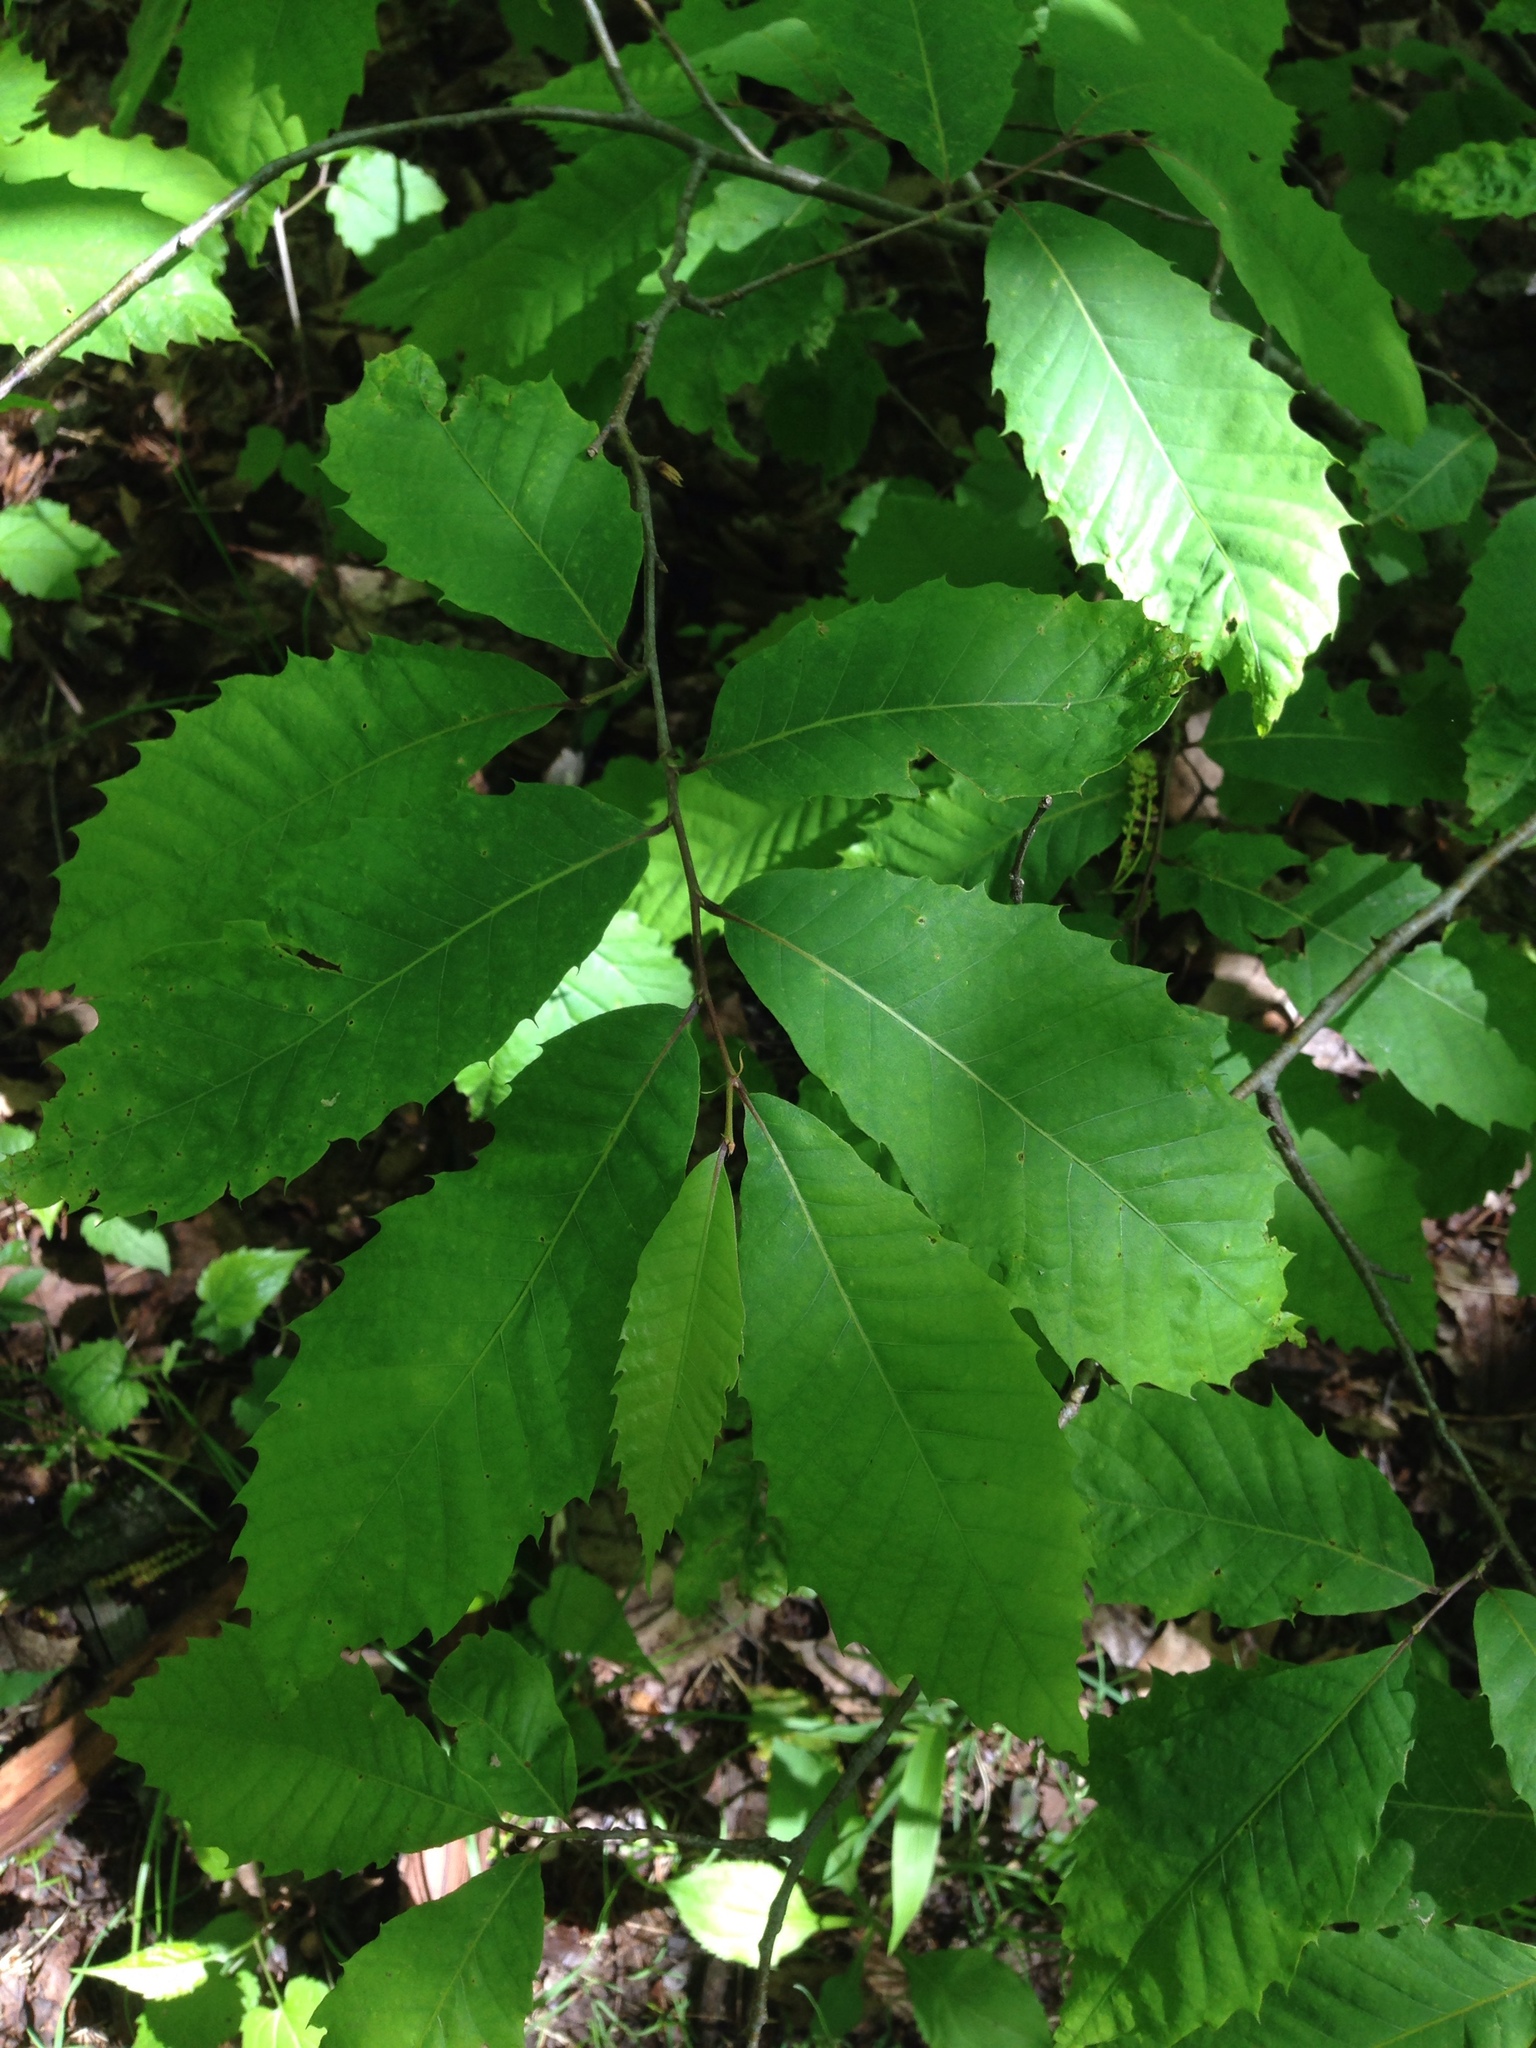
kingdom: Plantae
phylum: Tracheophyta
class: Magnoliopsida
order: Fagales
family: Fagaceae
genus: Castanea
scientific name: Castanea dentata
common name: American chestnut
